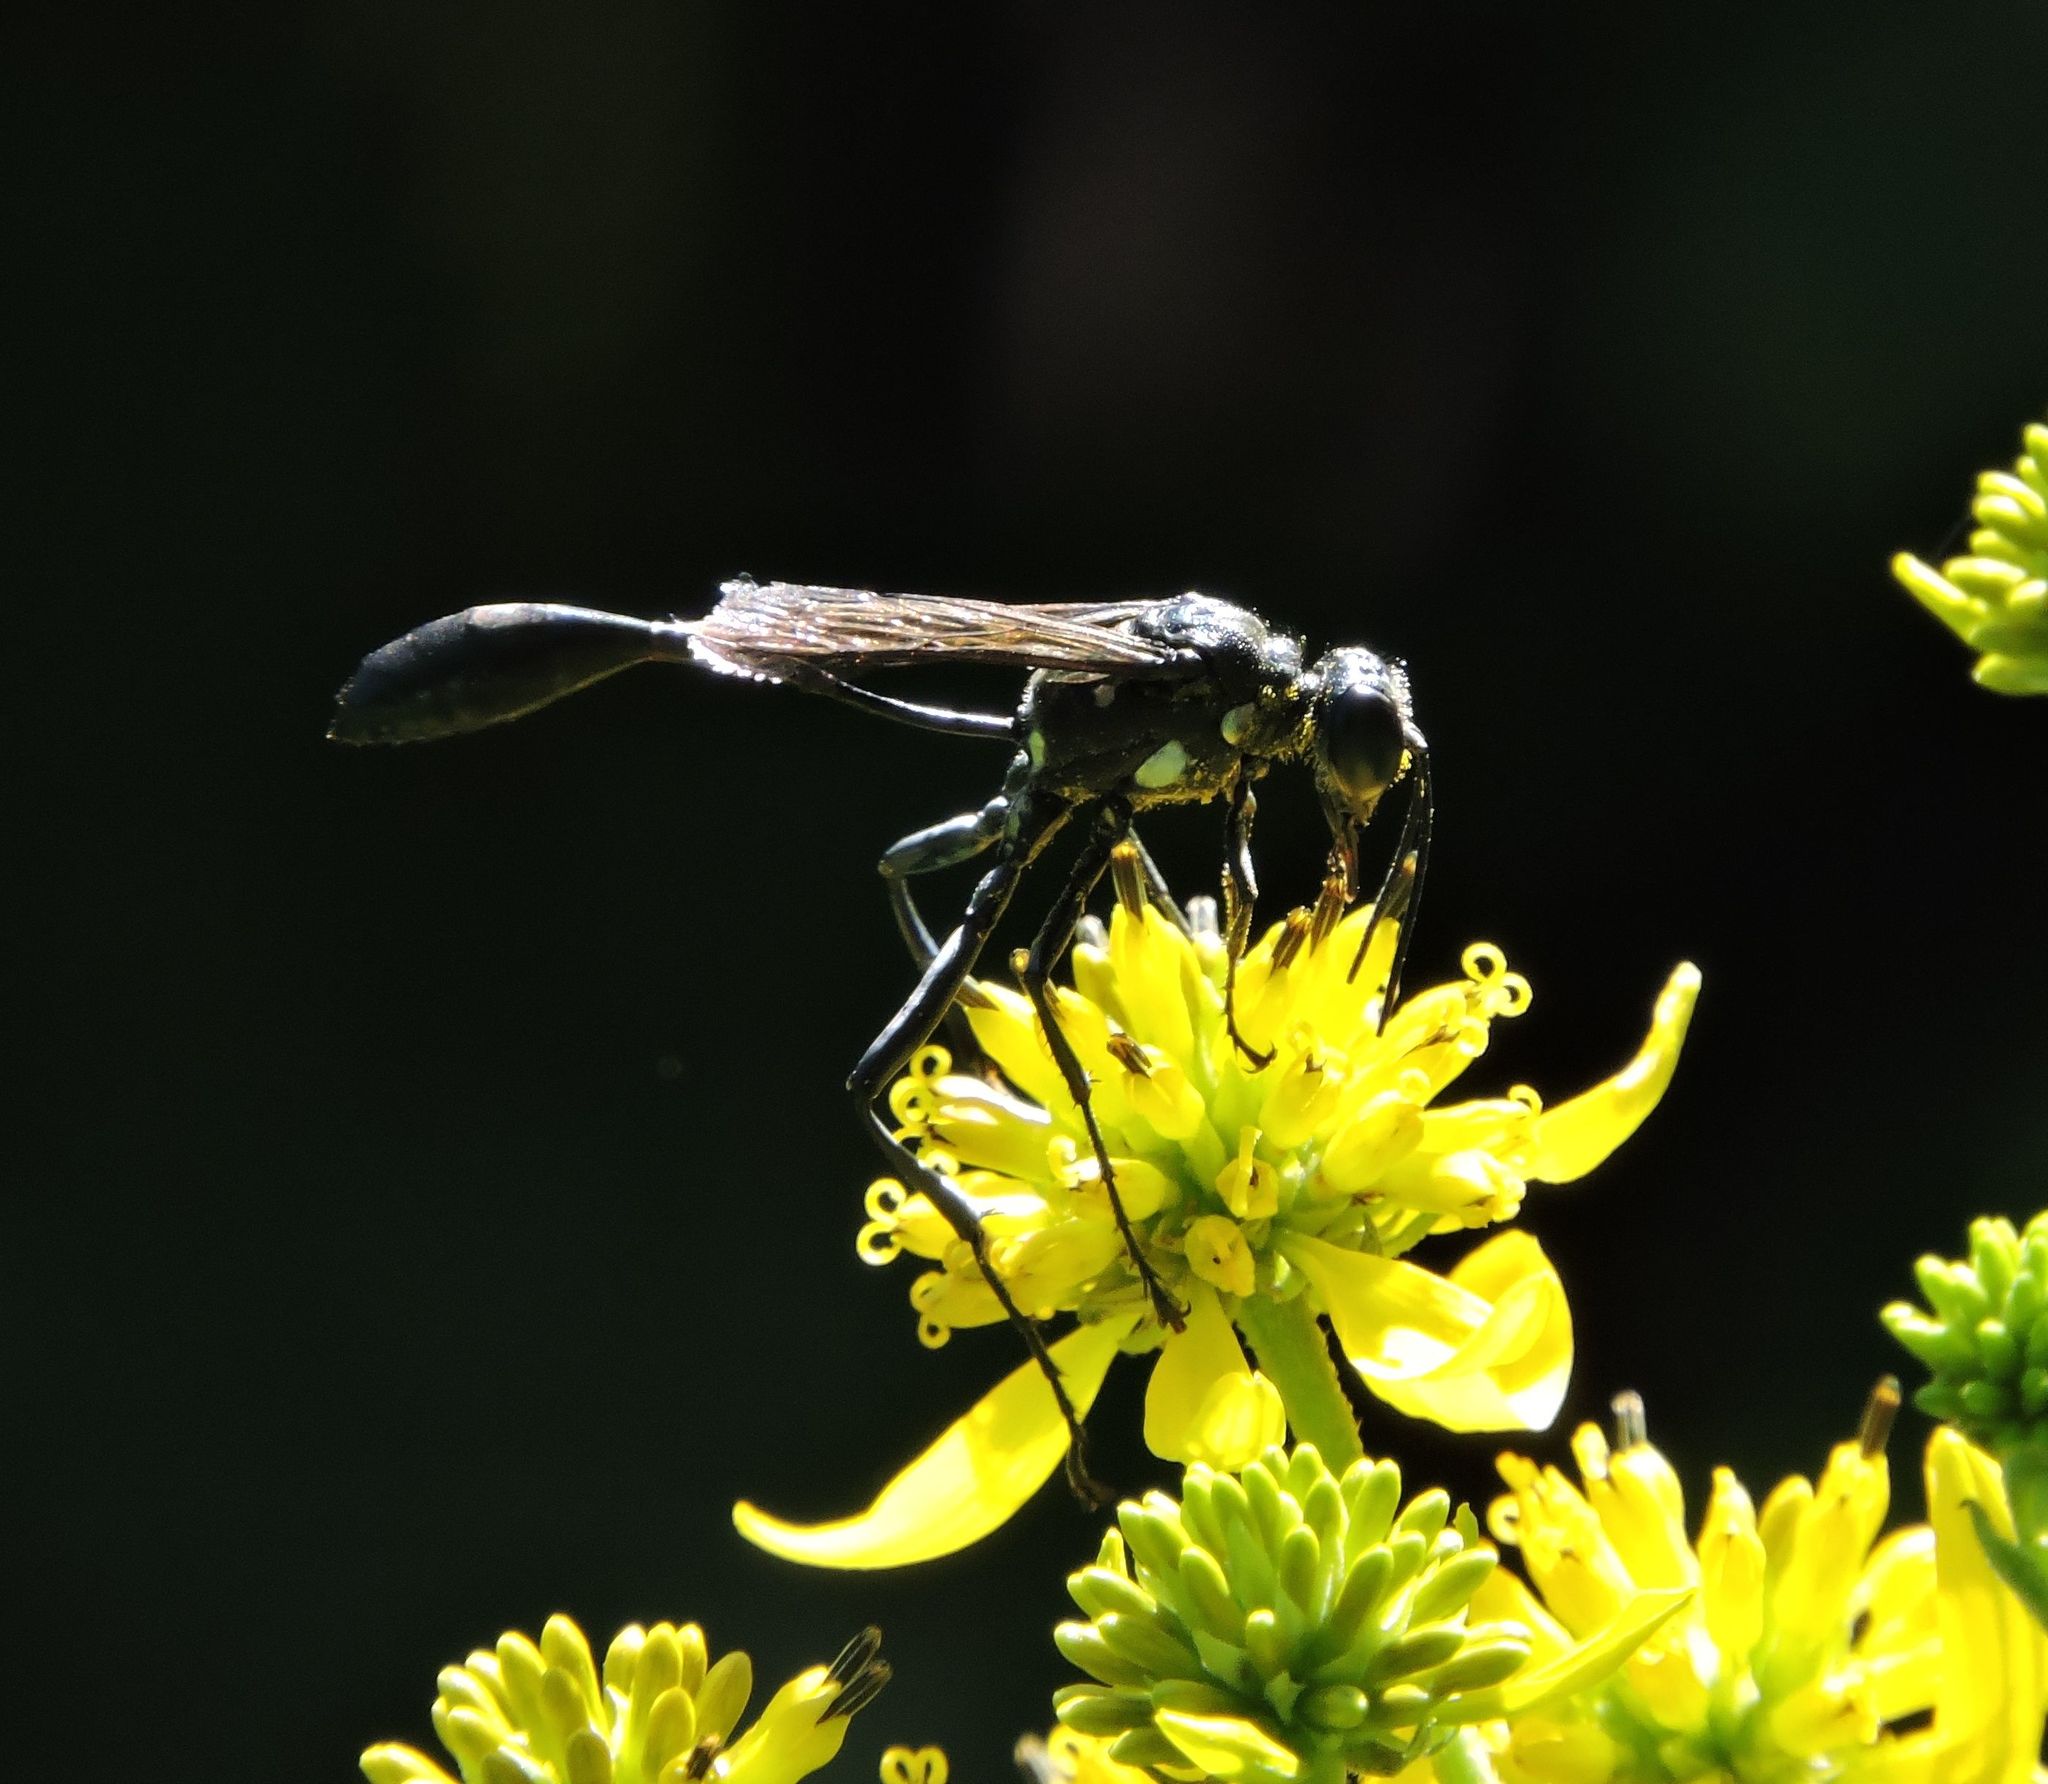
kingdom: Animalia
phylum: Arthropoda
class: Insecta
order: Hymenoptera
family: Sphecidae
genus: Eremnophila
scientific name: Eremnophila aureonotata
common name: Gold-marked thread-waisted wasp
